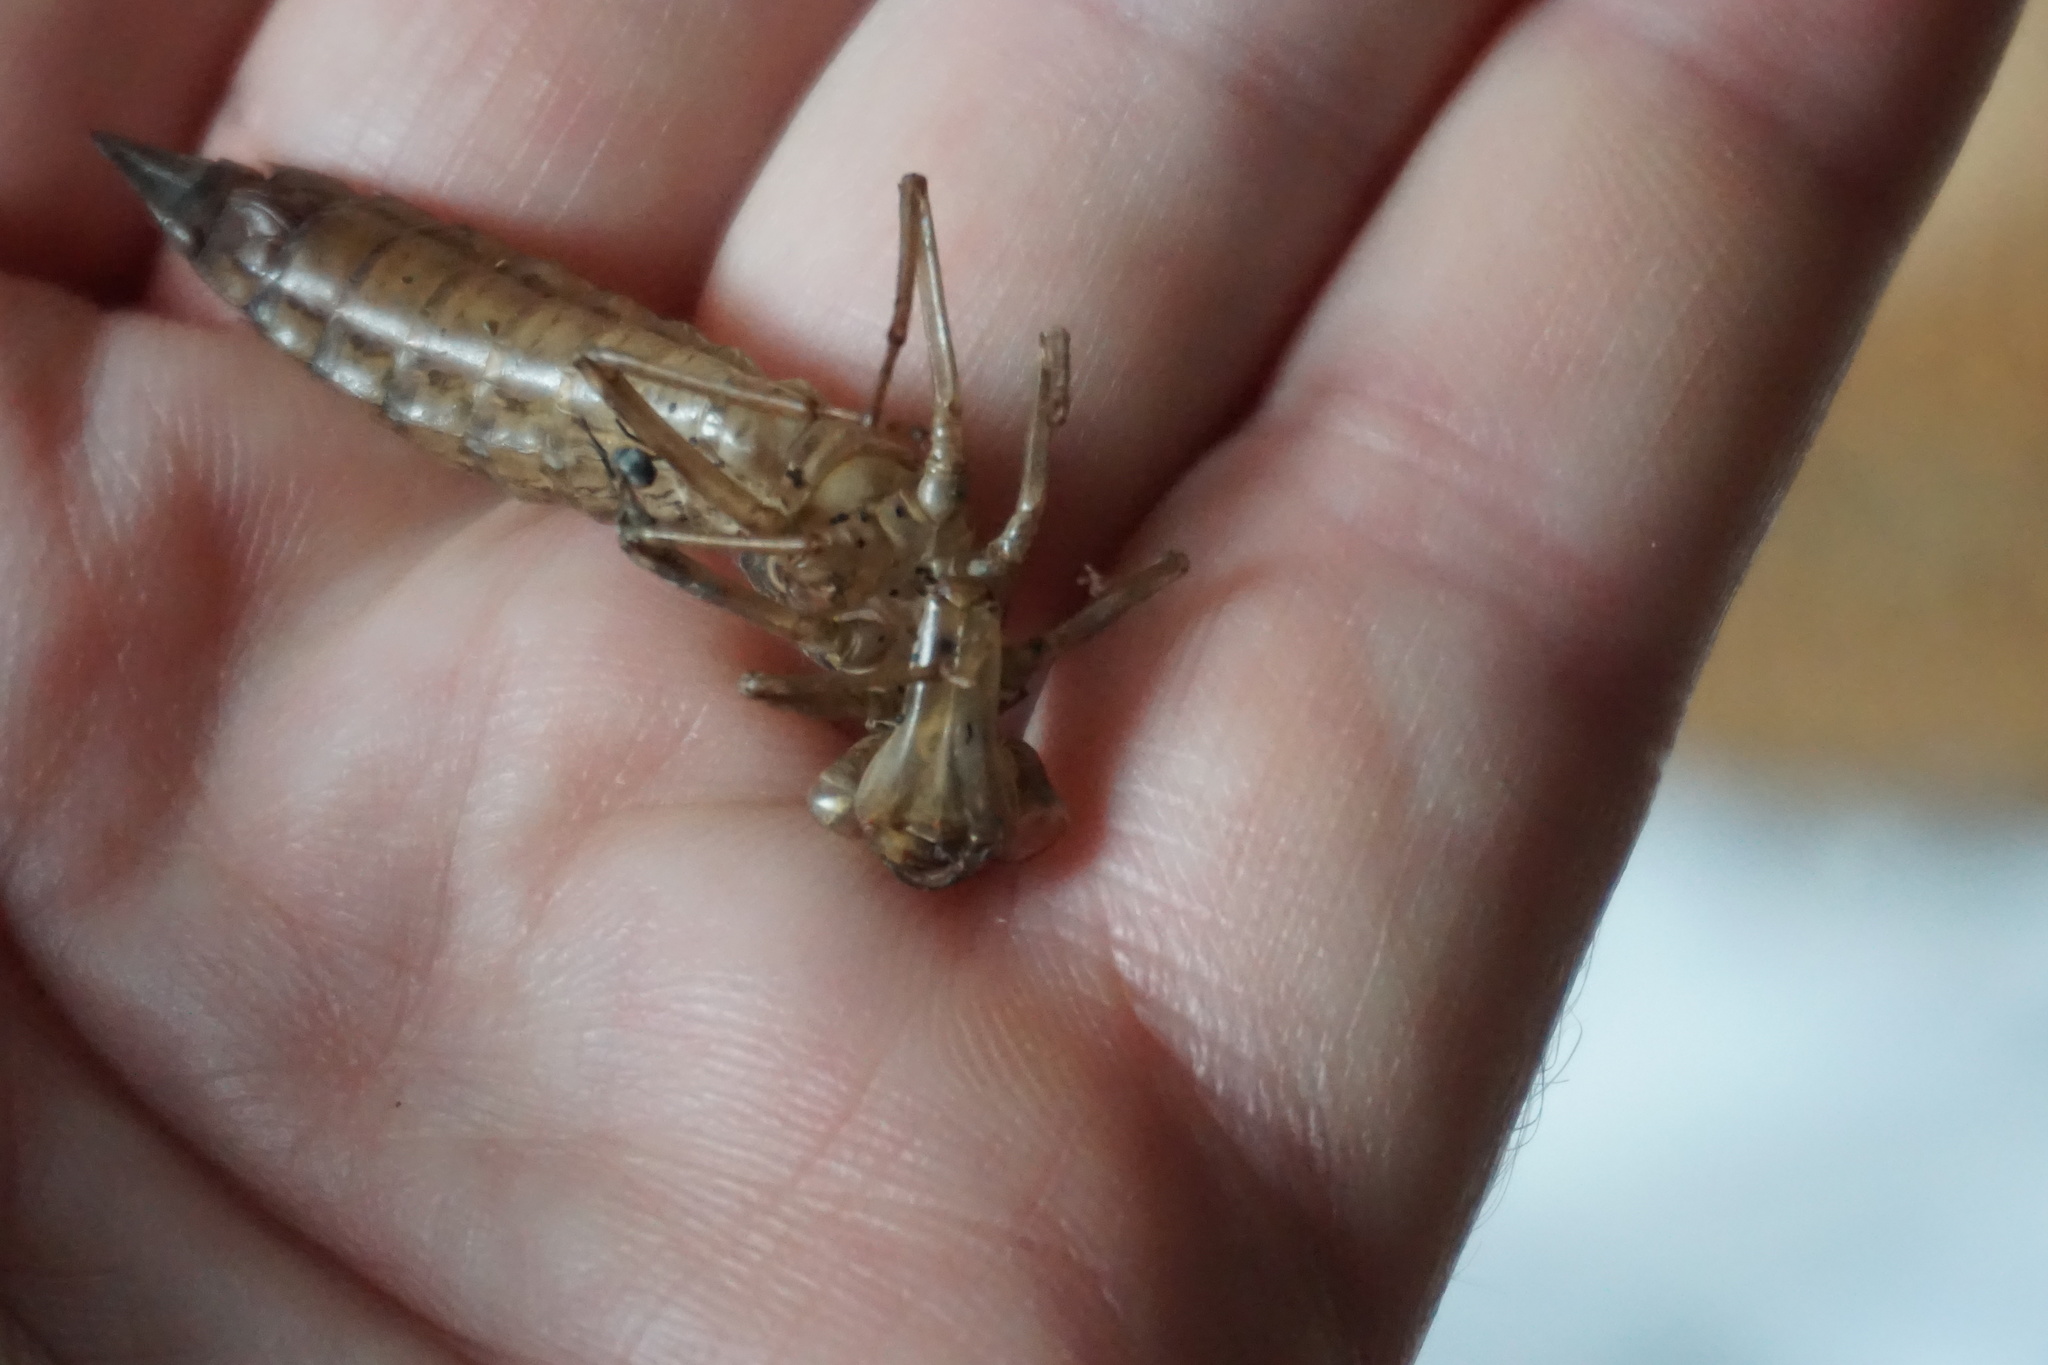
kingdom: Animalia
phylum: Arthropoda
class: Insecta
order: Odonata
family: Aeshnidae
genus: Aeshna
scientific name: Aeshna cyanea
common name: Southern hawker
